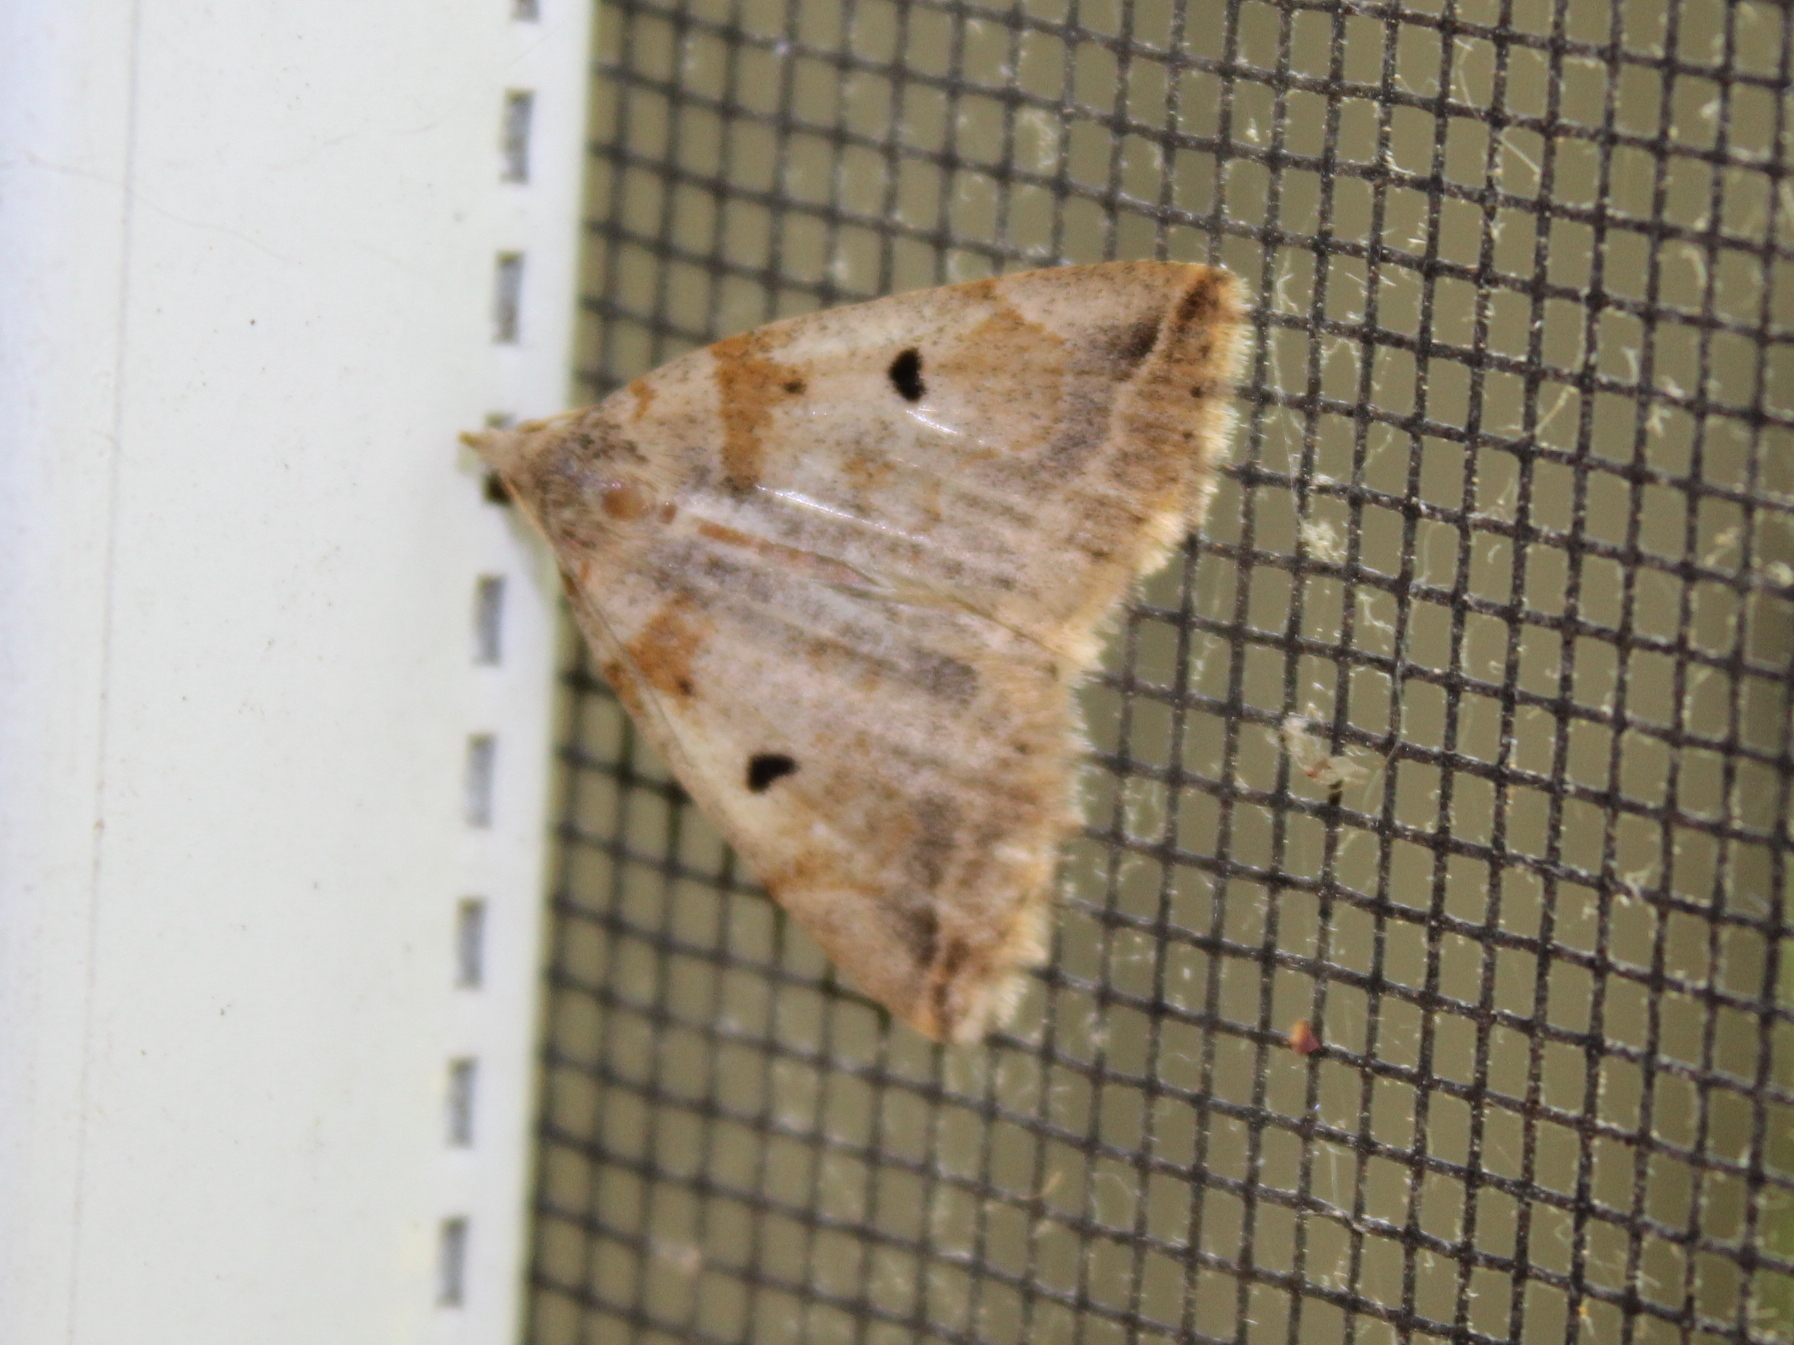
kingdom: Animalia
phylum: Arthropoda
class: Insecta
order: Lepidoptera
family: Erebidae
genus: Zanclognatha
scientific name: Zanclognatha laevigata
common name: Variable fan-foot
